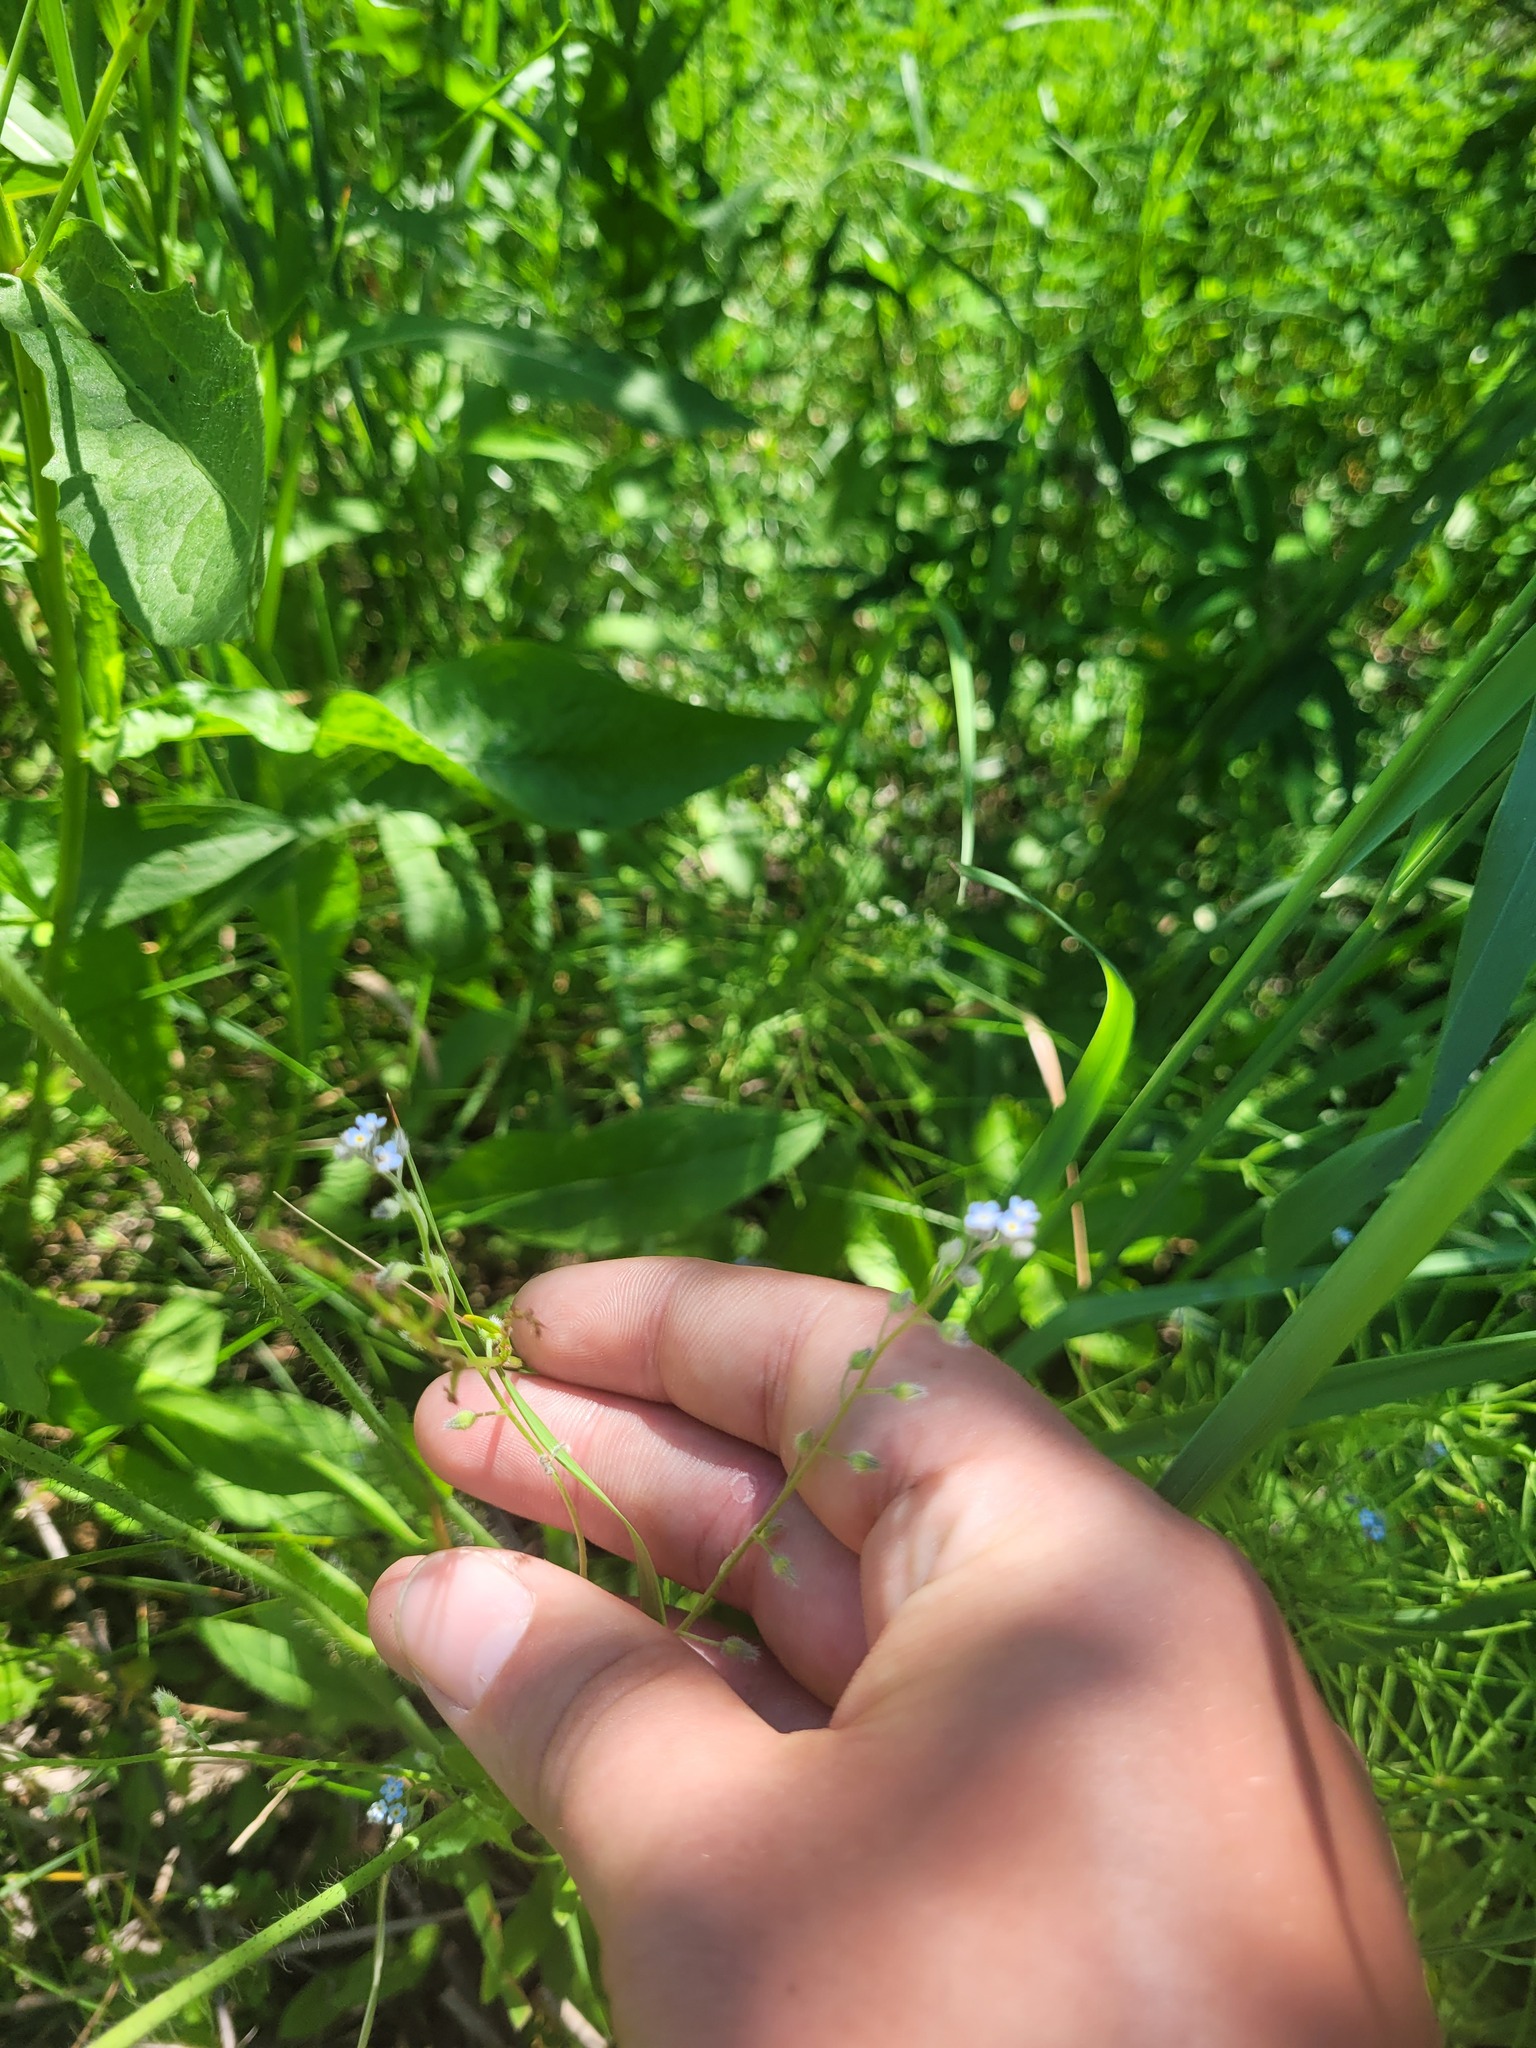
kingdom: Plantae
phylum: Tracheophyta
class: Magnoliopsida
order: Boraginales
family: Boraginaceae
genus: Myosotis
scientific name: Myosotis arvensis
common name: Field forget-me-not
